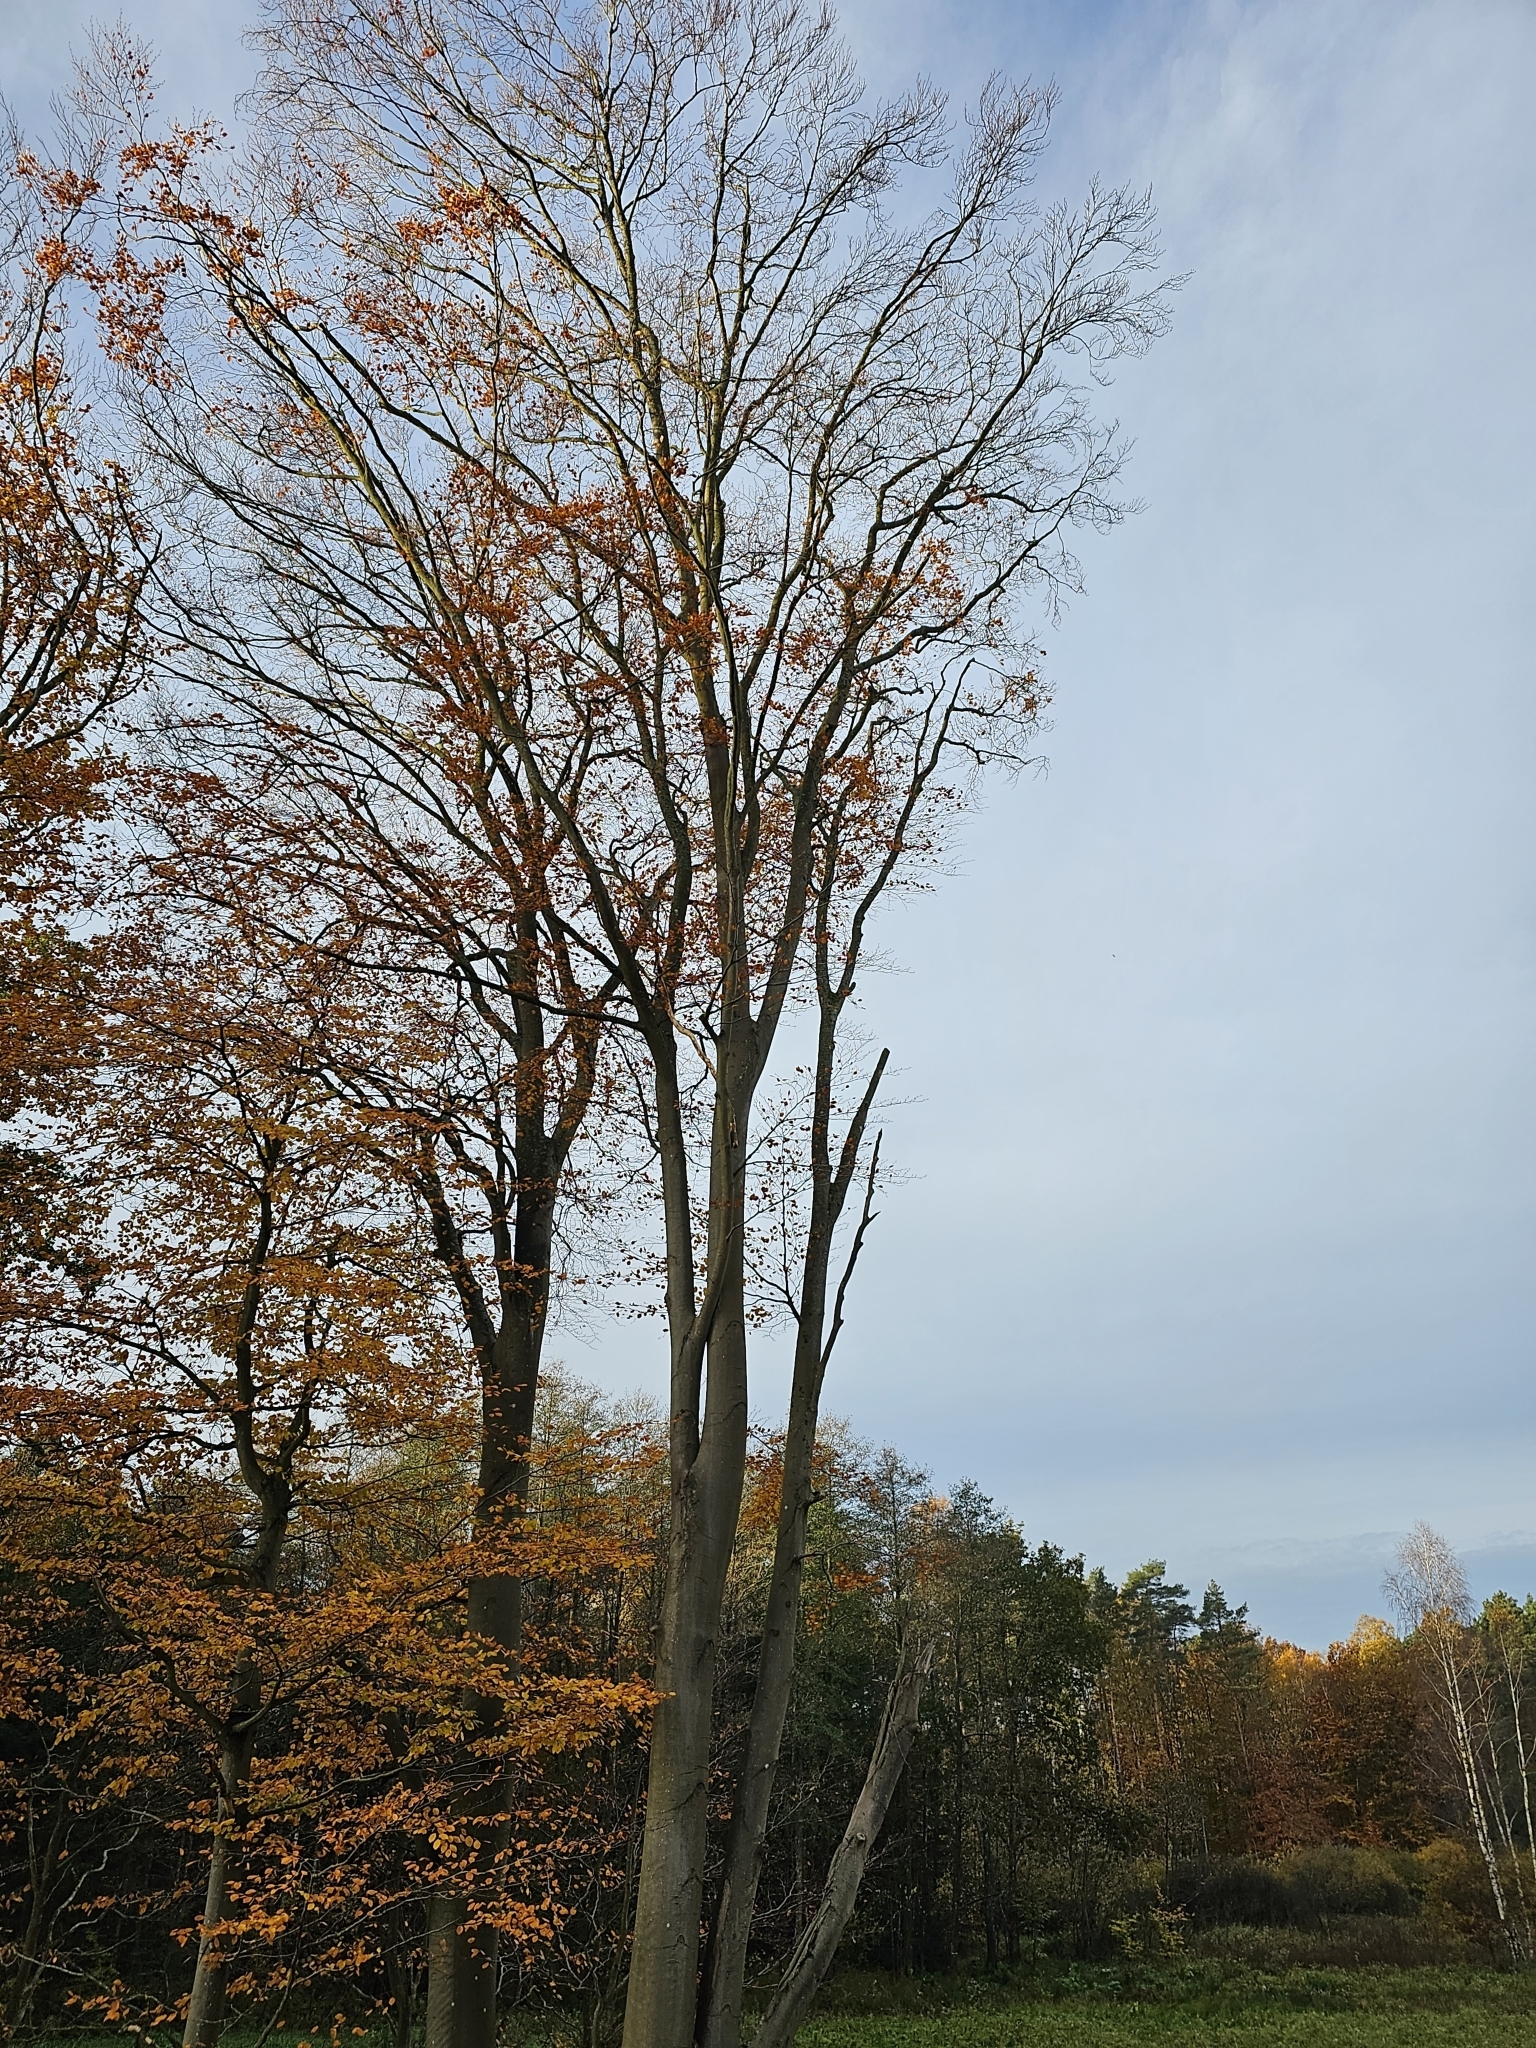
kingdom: Plantae
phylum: Tracheophyta
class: Magnoliopsida
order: Fagales
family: Fagaceae
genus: Fagus
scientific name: Fagus sylvatica
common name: Beech
